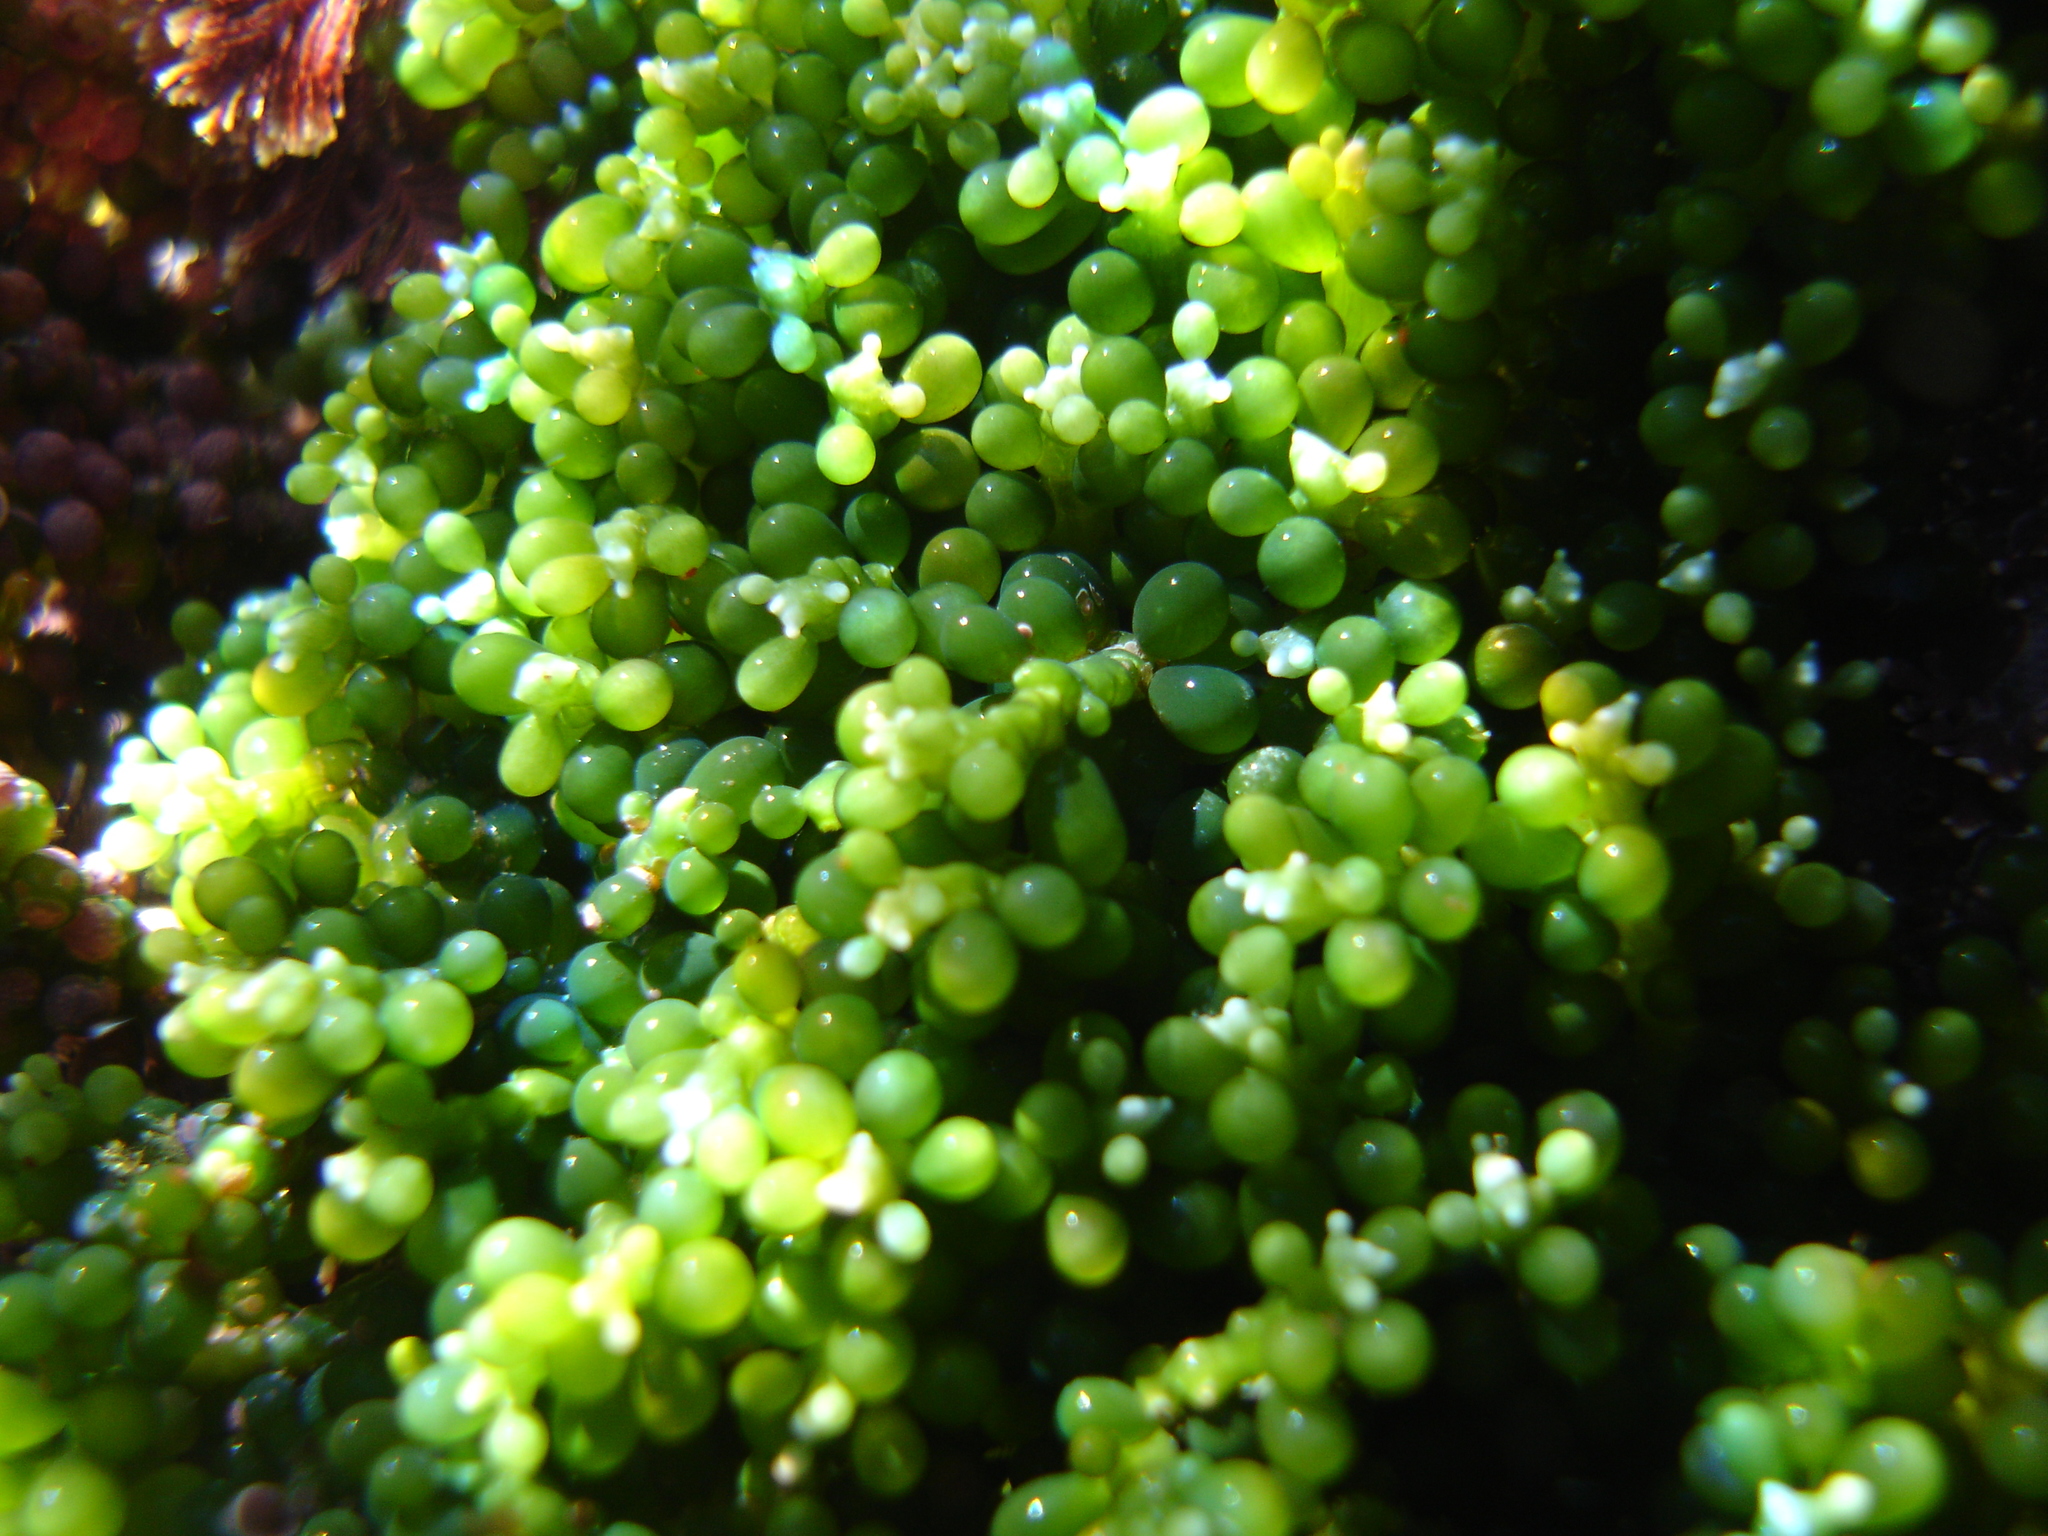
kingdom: Plantae
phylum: Chlorophyta
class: Ulvophyceae
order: Bryopsidales
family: Caulerpaceae
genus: Caulerpa
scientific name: Caulerpa geminata
